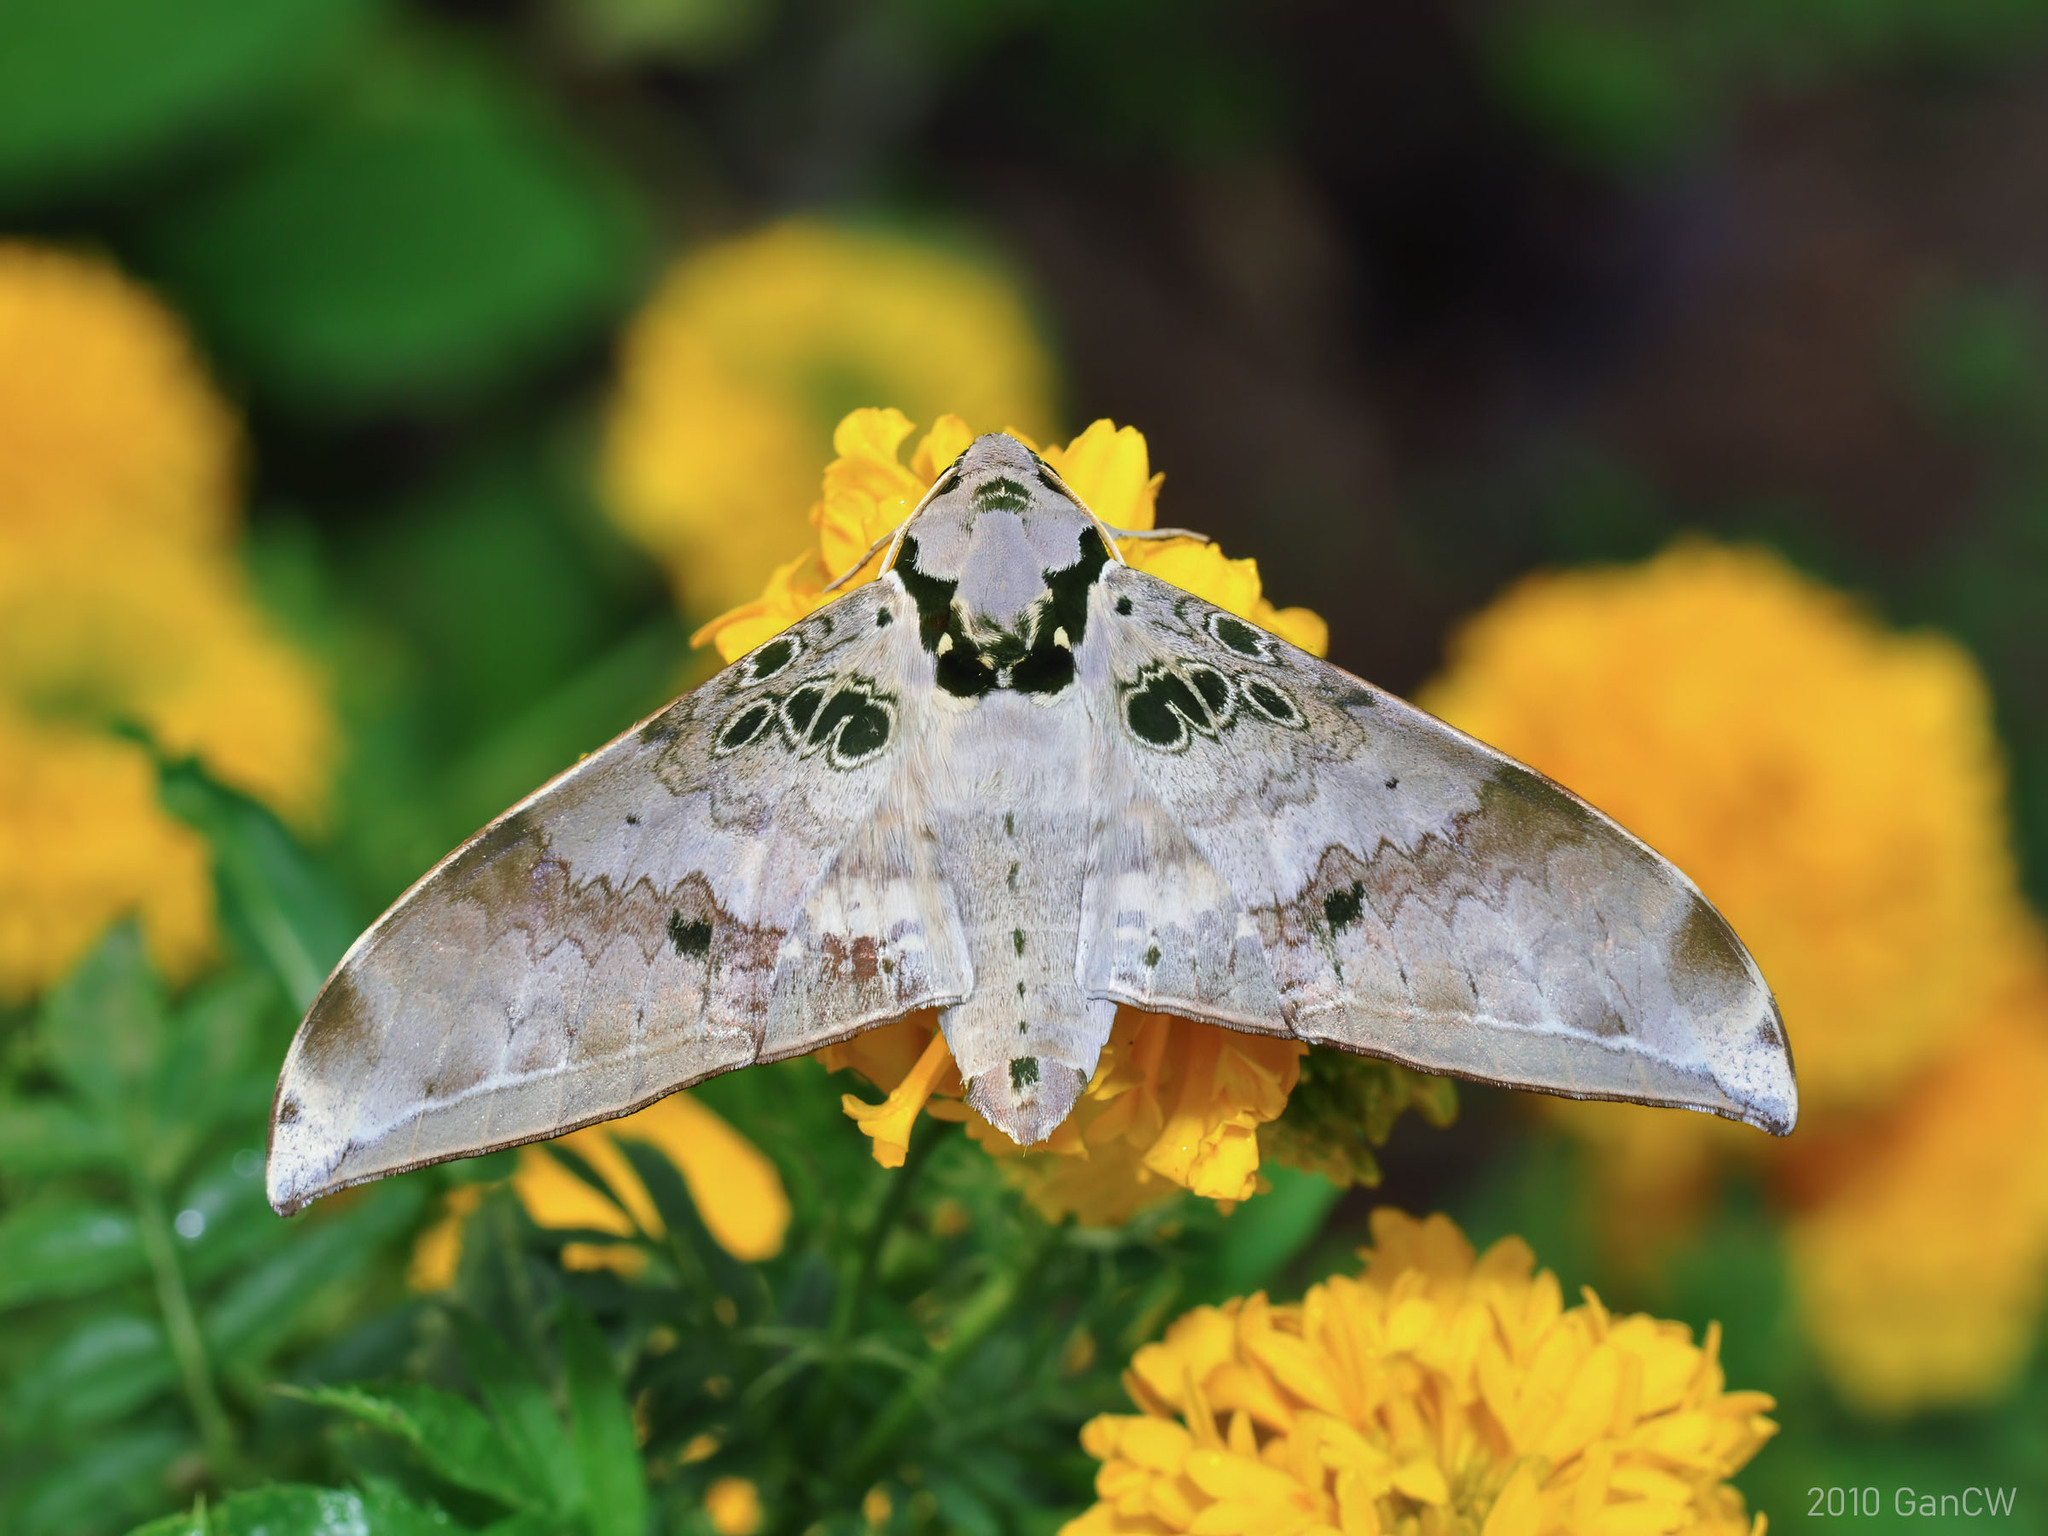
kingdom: Animalia
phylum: Arthropoda
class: Insecta
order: Lepidoptera
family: Sphingidae
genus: Ambulyx
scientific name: Ambulyx canescens
